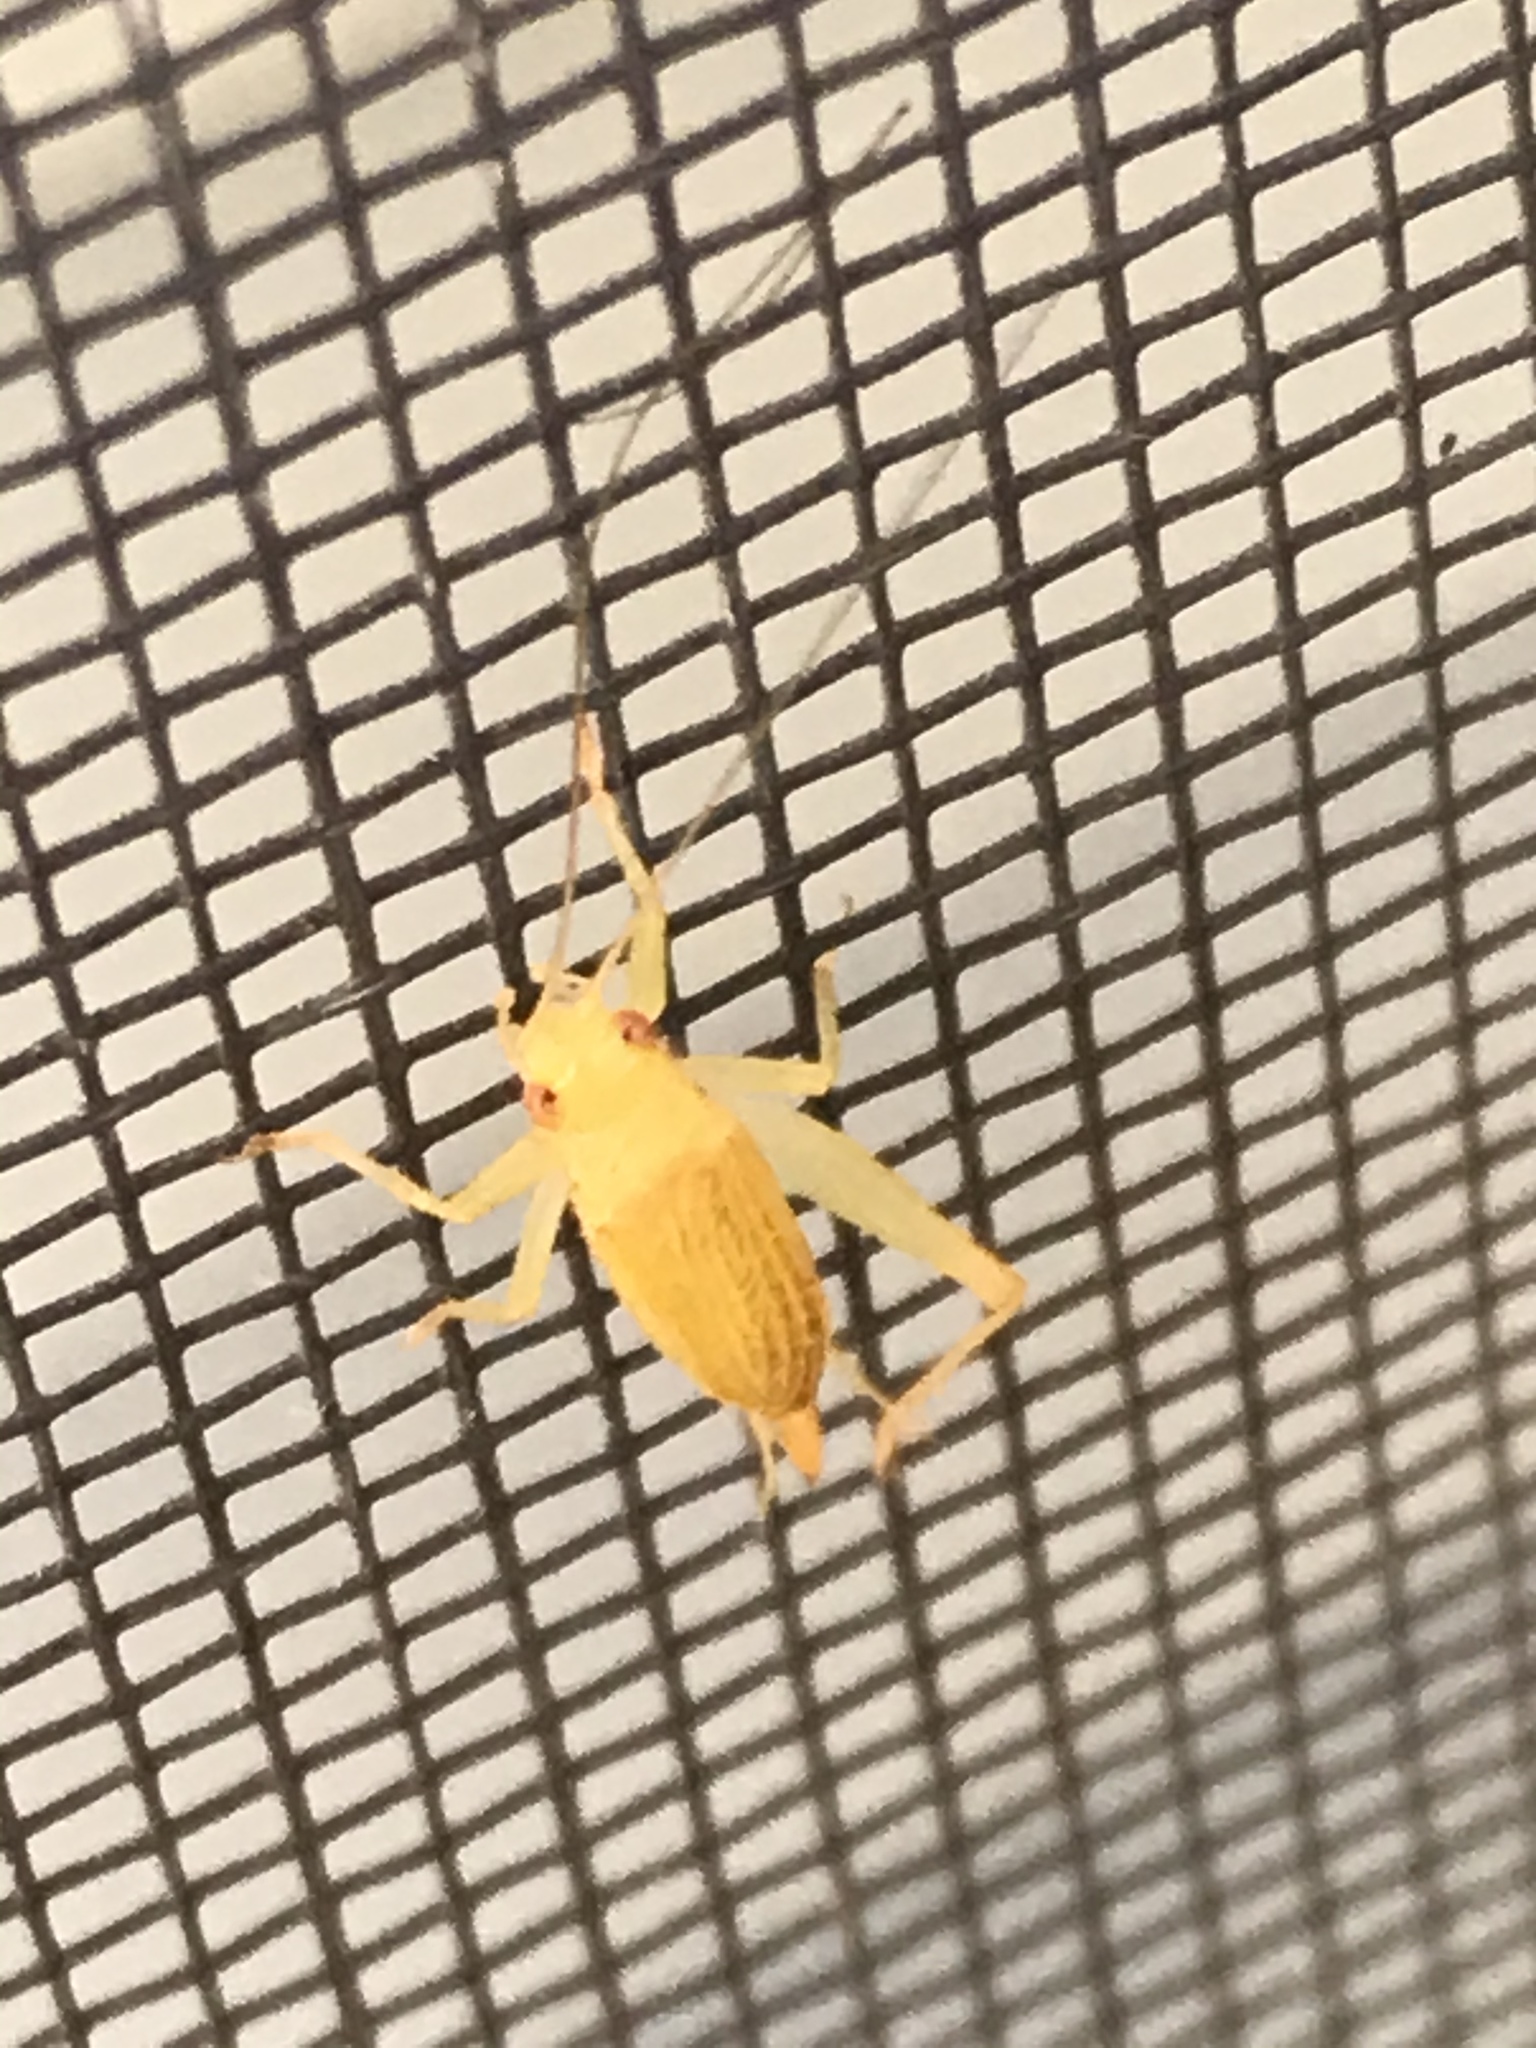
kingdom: Animalia
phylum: Arthropoda
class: Insecta
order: Orthoptera
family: Trigonidiidae
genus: Cyrtoxipha
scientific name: Cyrtoxipha columbiana
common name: Columbian trig
